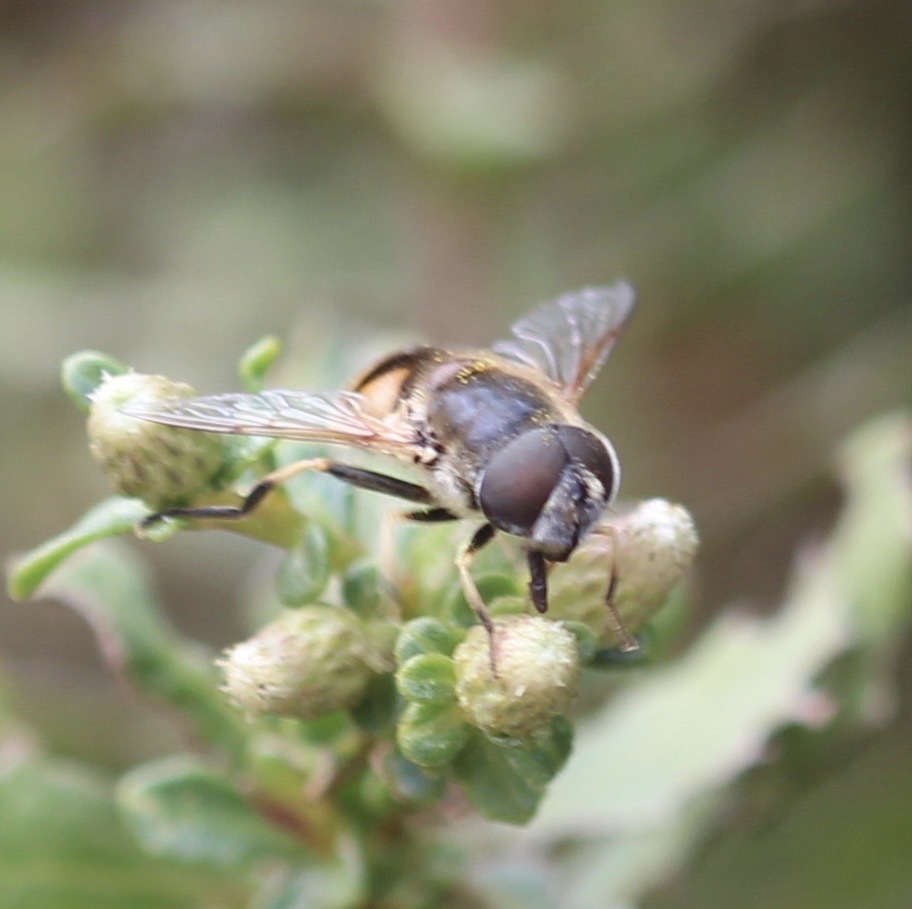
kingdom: Animalia
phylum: Arthropoda
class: Insecta
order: Diptera
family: Syrphidae
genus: Eristalis
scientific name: Eristalis hirta
